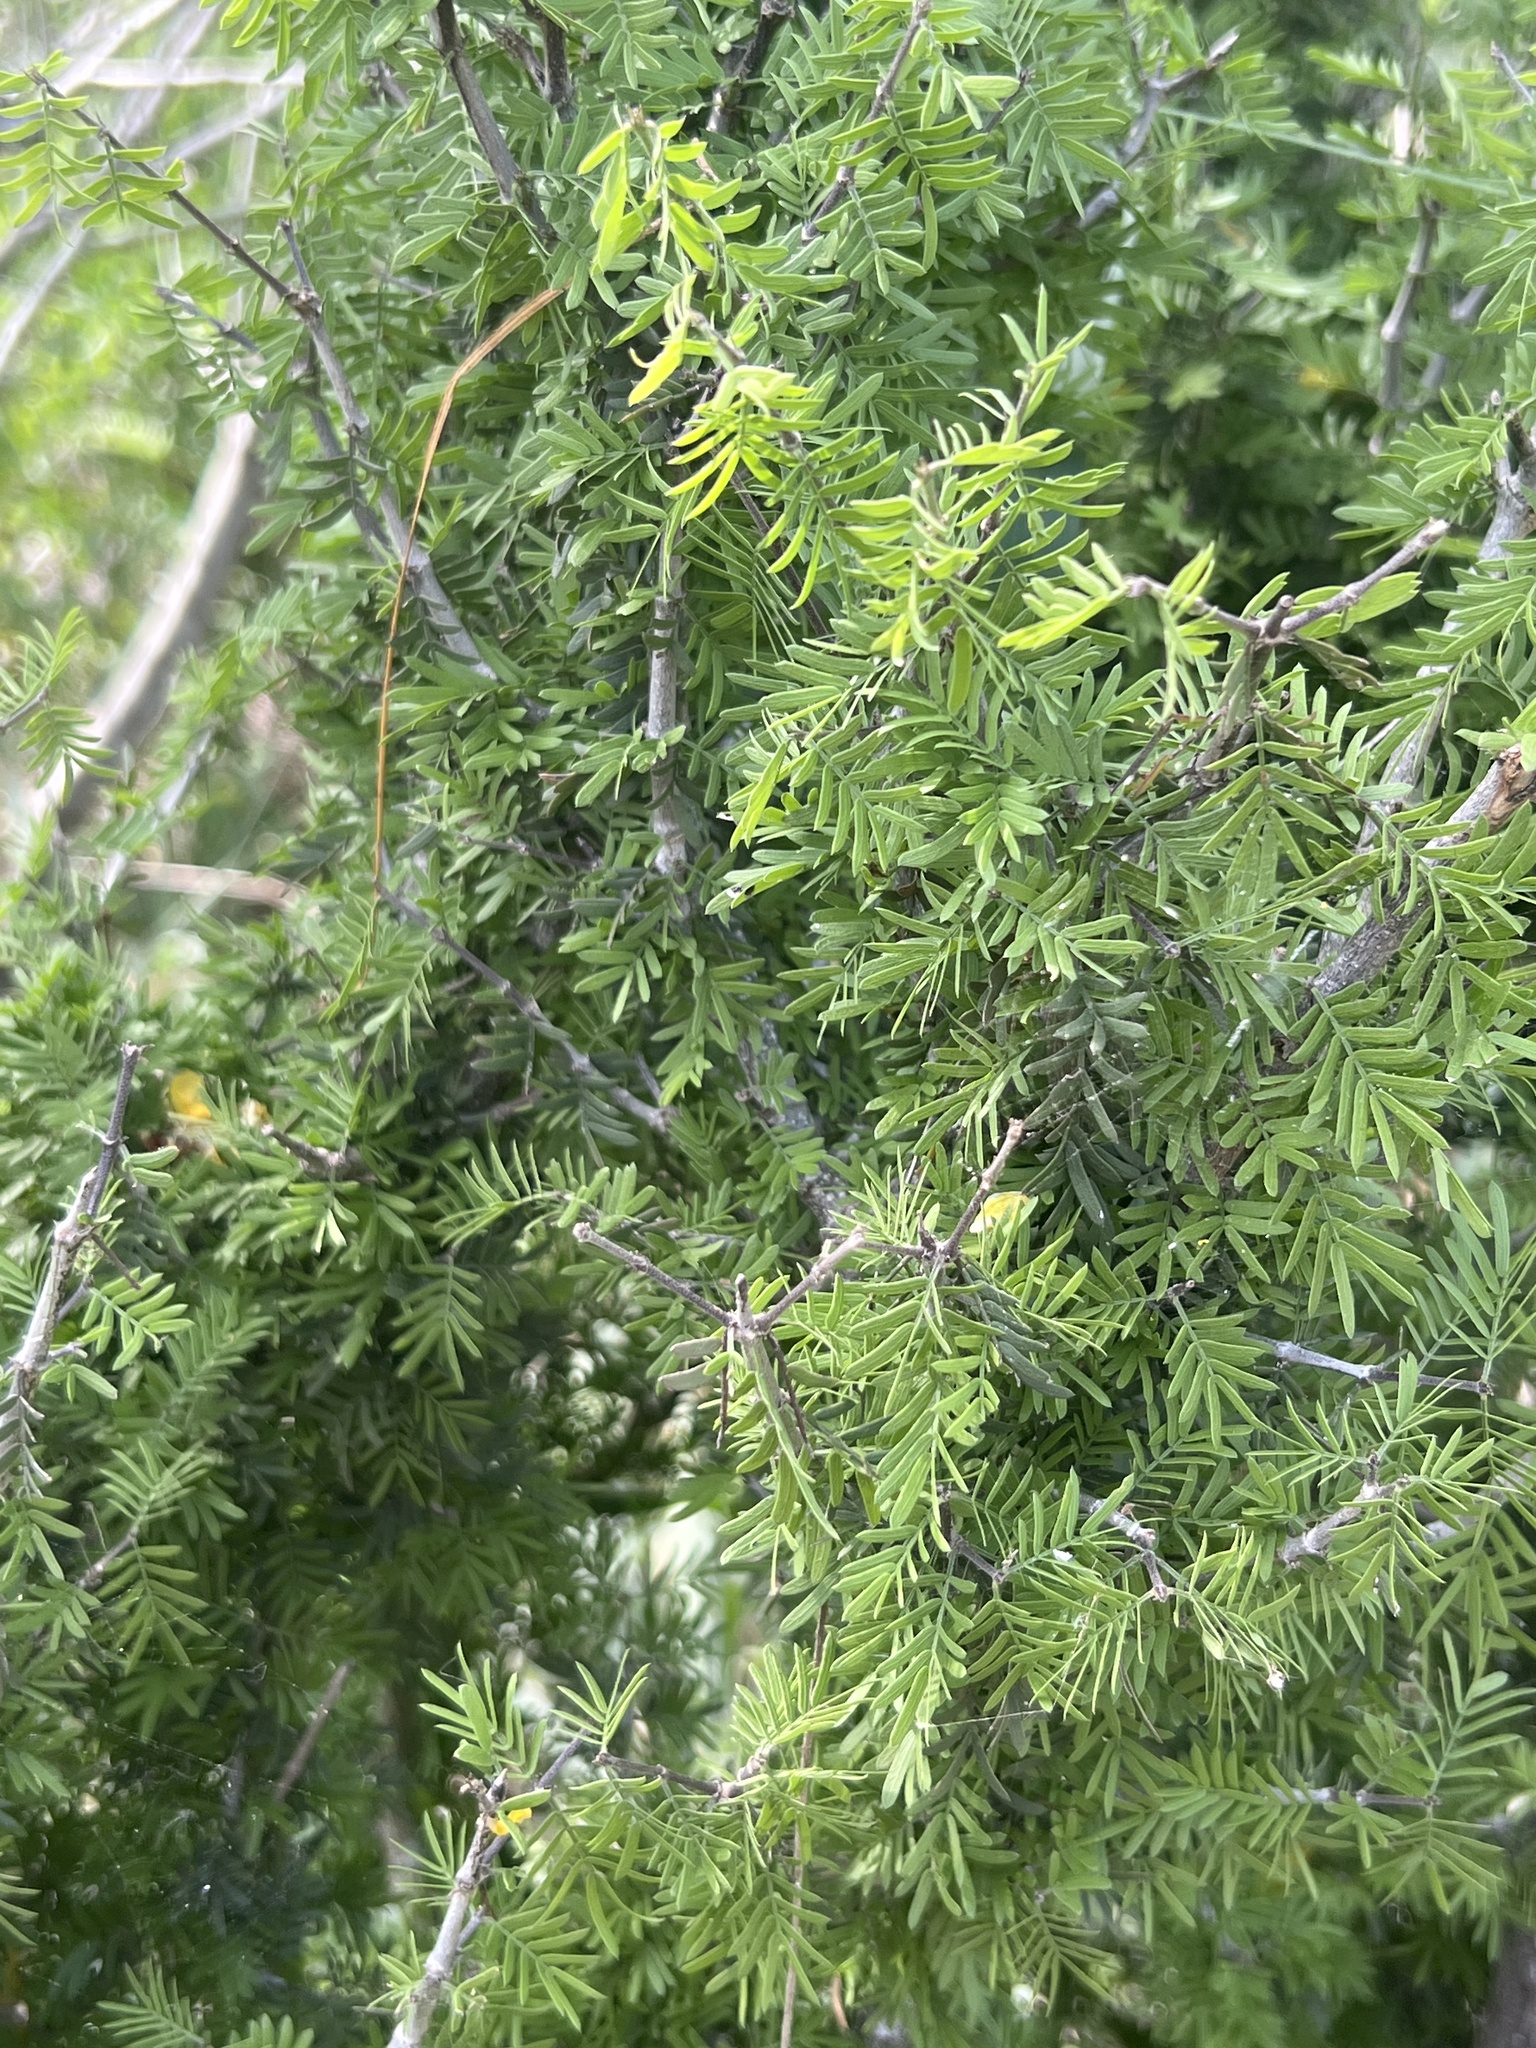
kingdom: Plantae
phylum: Tracheophyta
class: Magnoliopsida
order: Zygophyllales
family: Zygophyllaceae
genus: Porlieria
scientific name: Porlieria angustifolia
